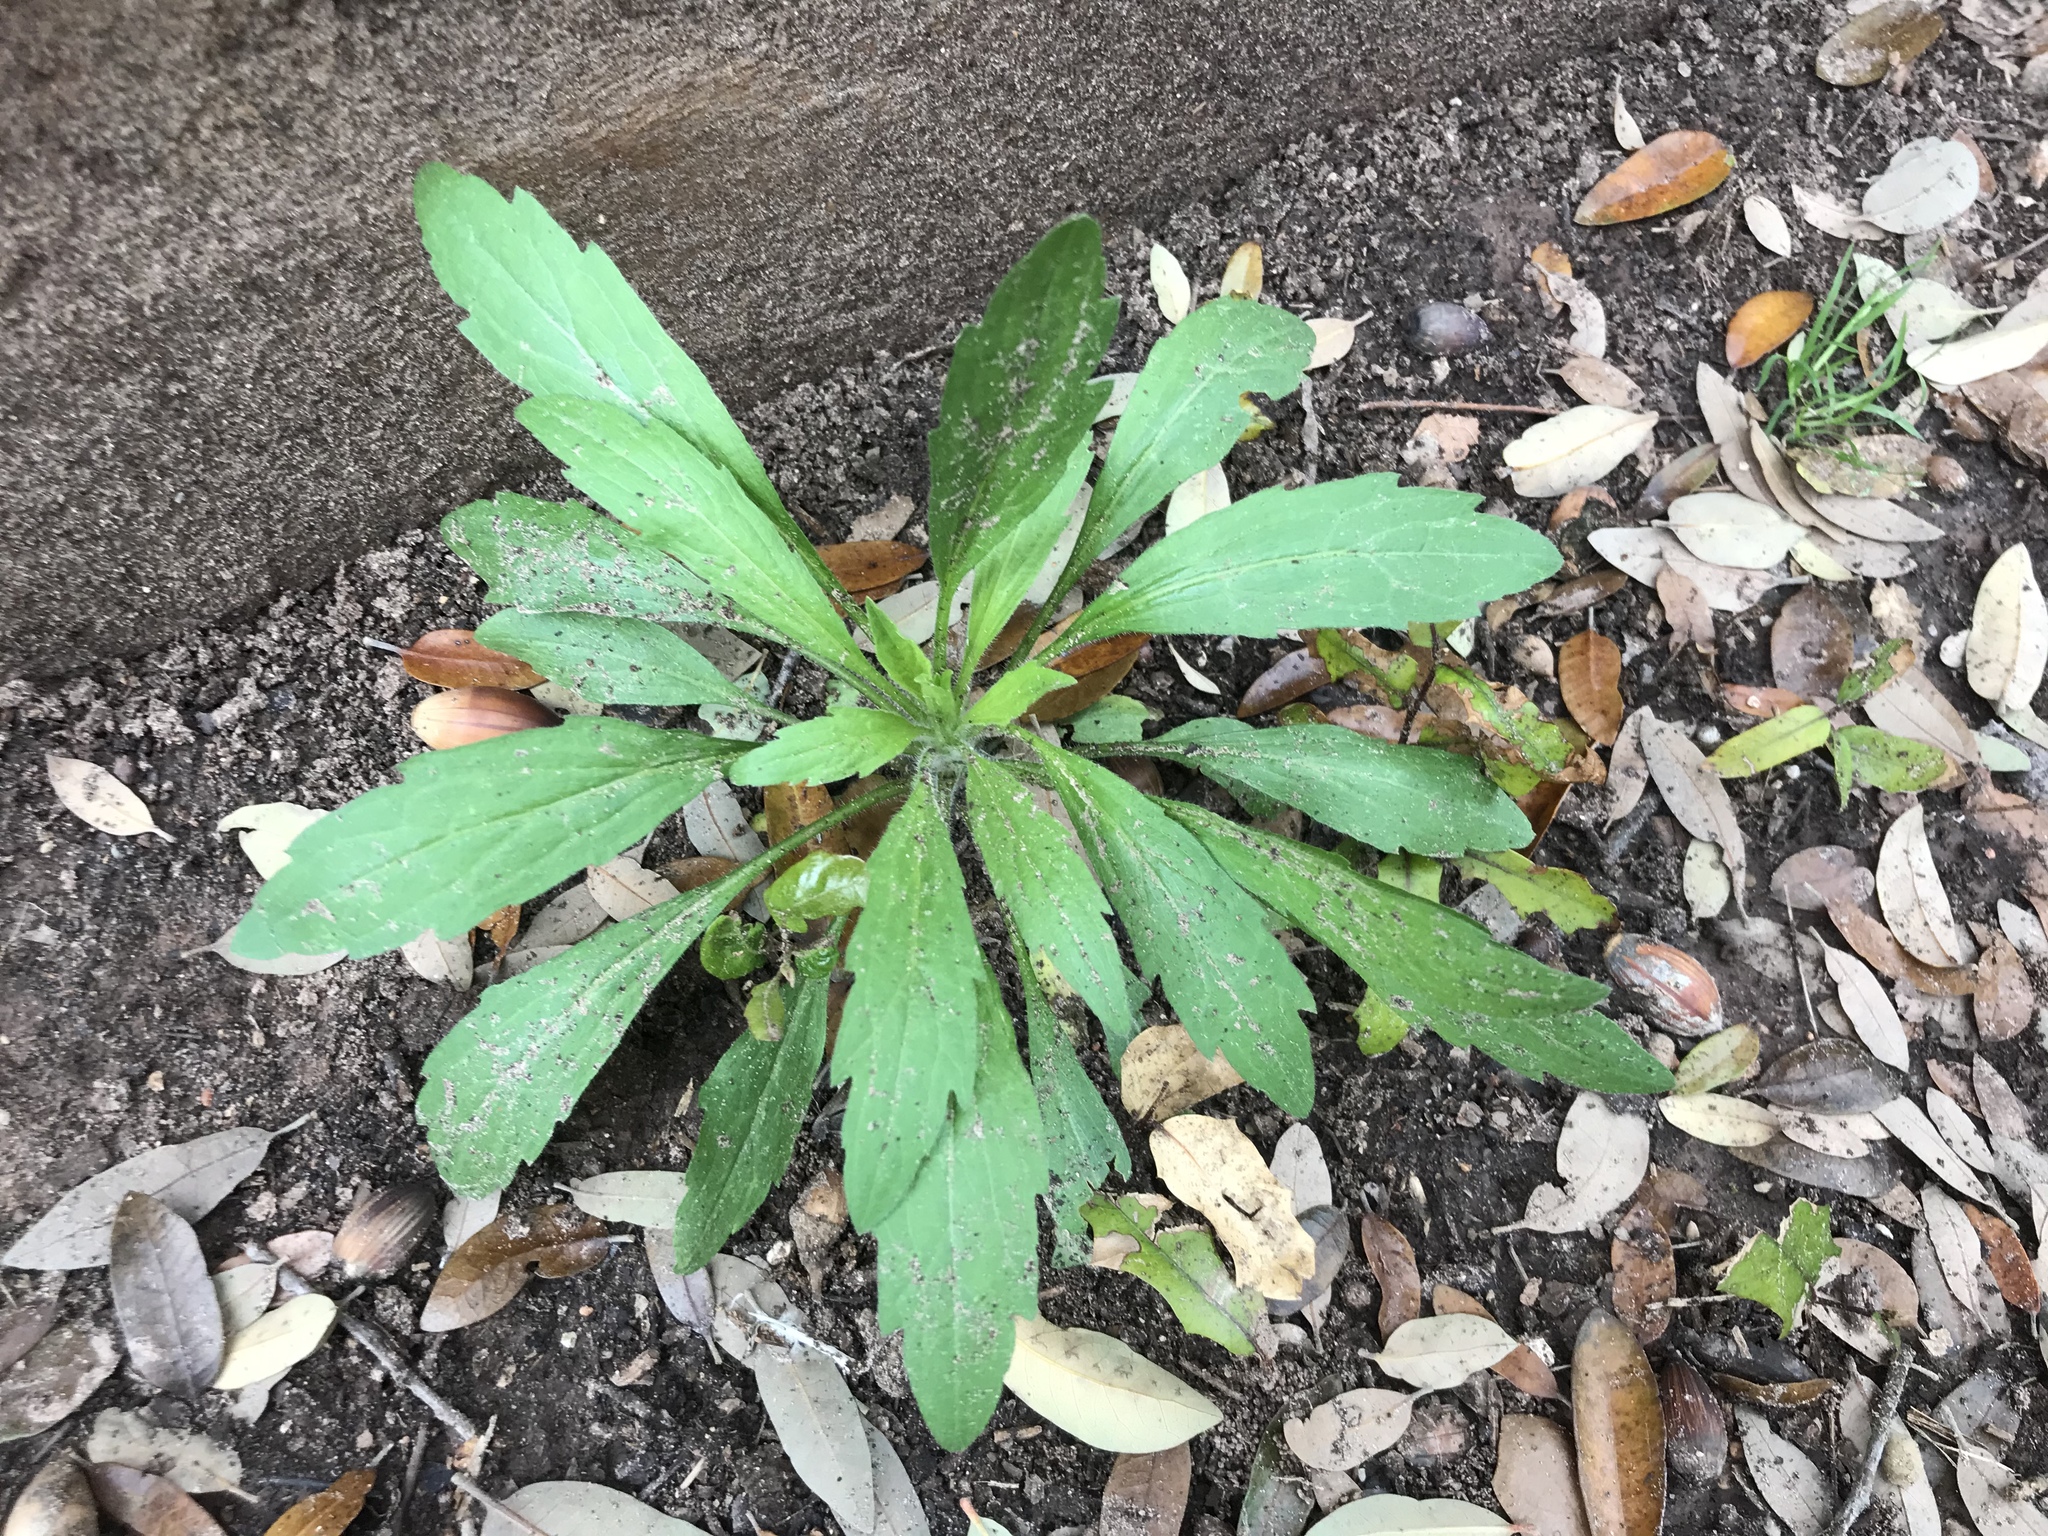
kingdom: Plantae
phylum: Tracheophyta
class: Magnoliopsida
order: Asterales
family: Asteraceae
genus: Erigeron
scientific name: Erigeron sumatrensis
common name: Daisy
